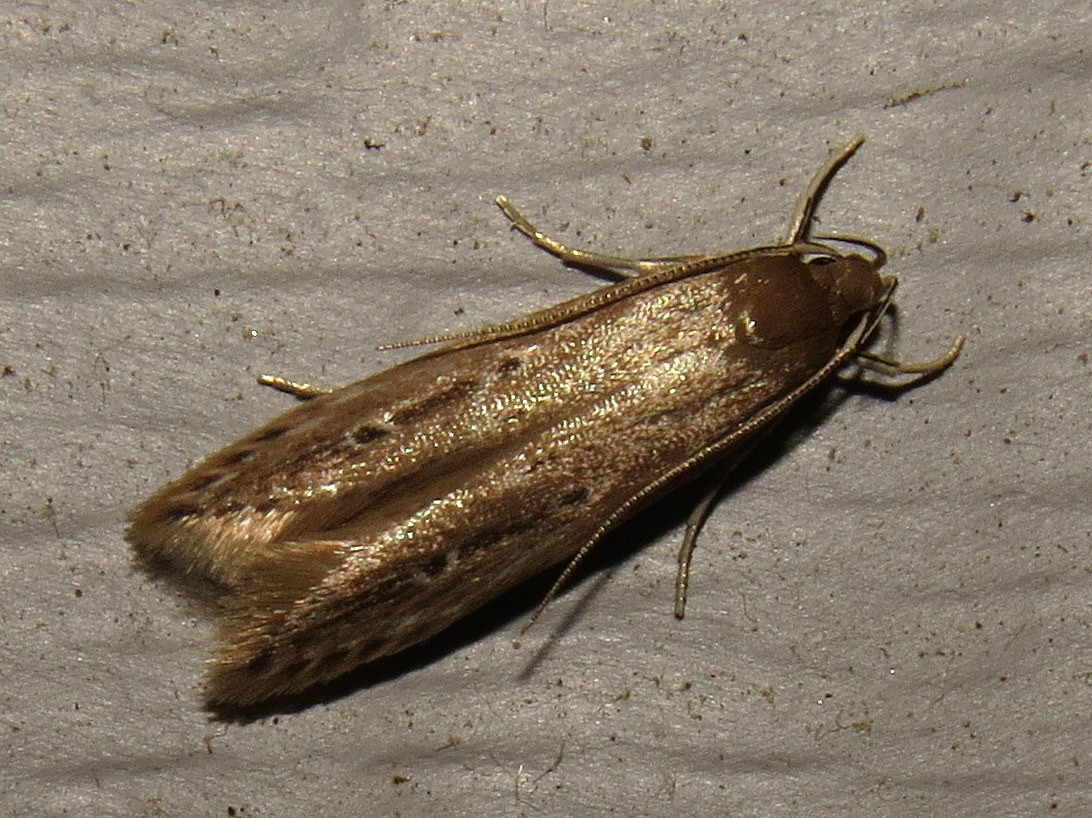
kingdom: Animalia
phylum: Arthropoda
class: Insecta
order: Lepidoptera
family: Cosmopterigidae
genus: Limnaecia
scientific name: Limnaecia phragmitella
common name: Bulrush cosmet
